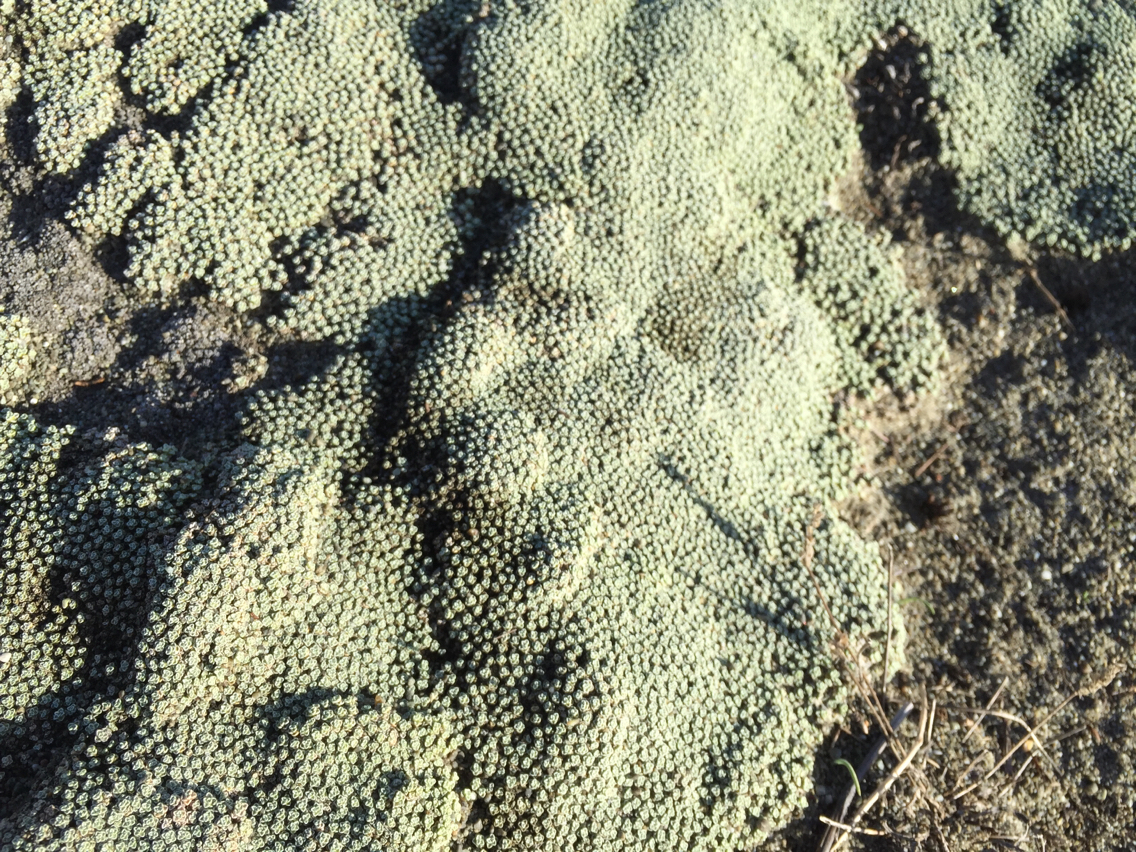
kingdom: Plantae
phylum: Tracheophyta
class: Magnoliopsida
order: Asterales
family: Asteraceae
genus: Raoulia
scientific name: Raoulia australis
